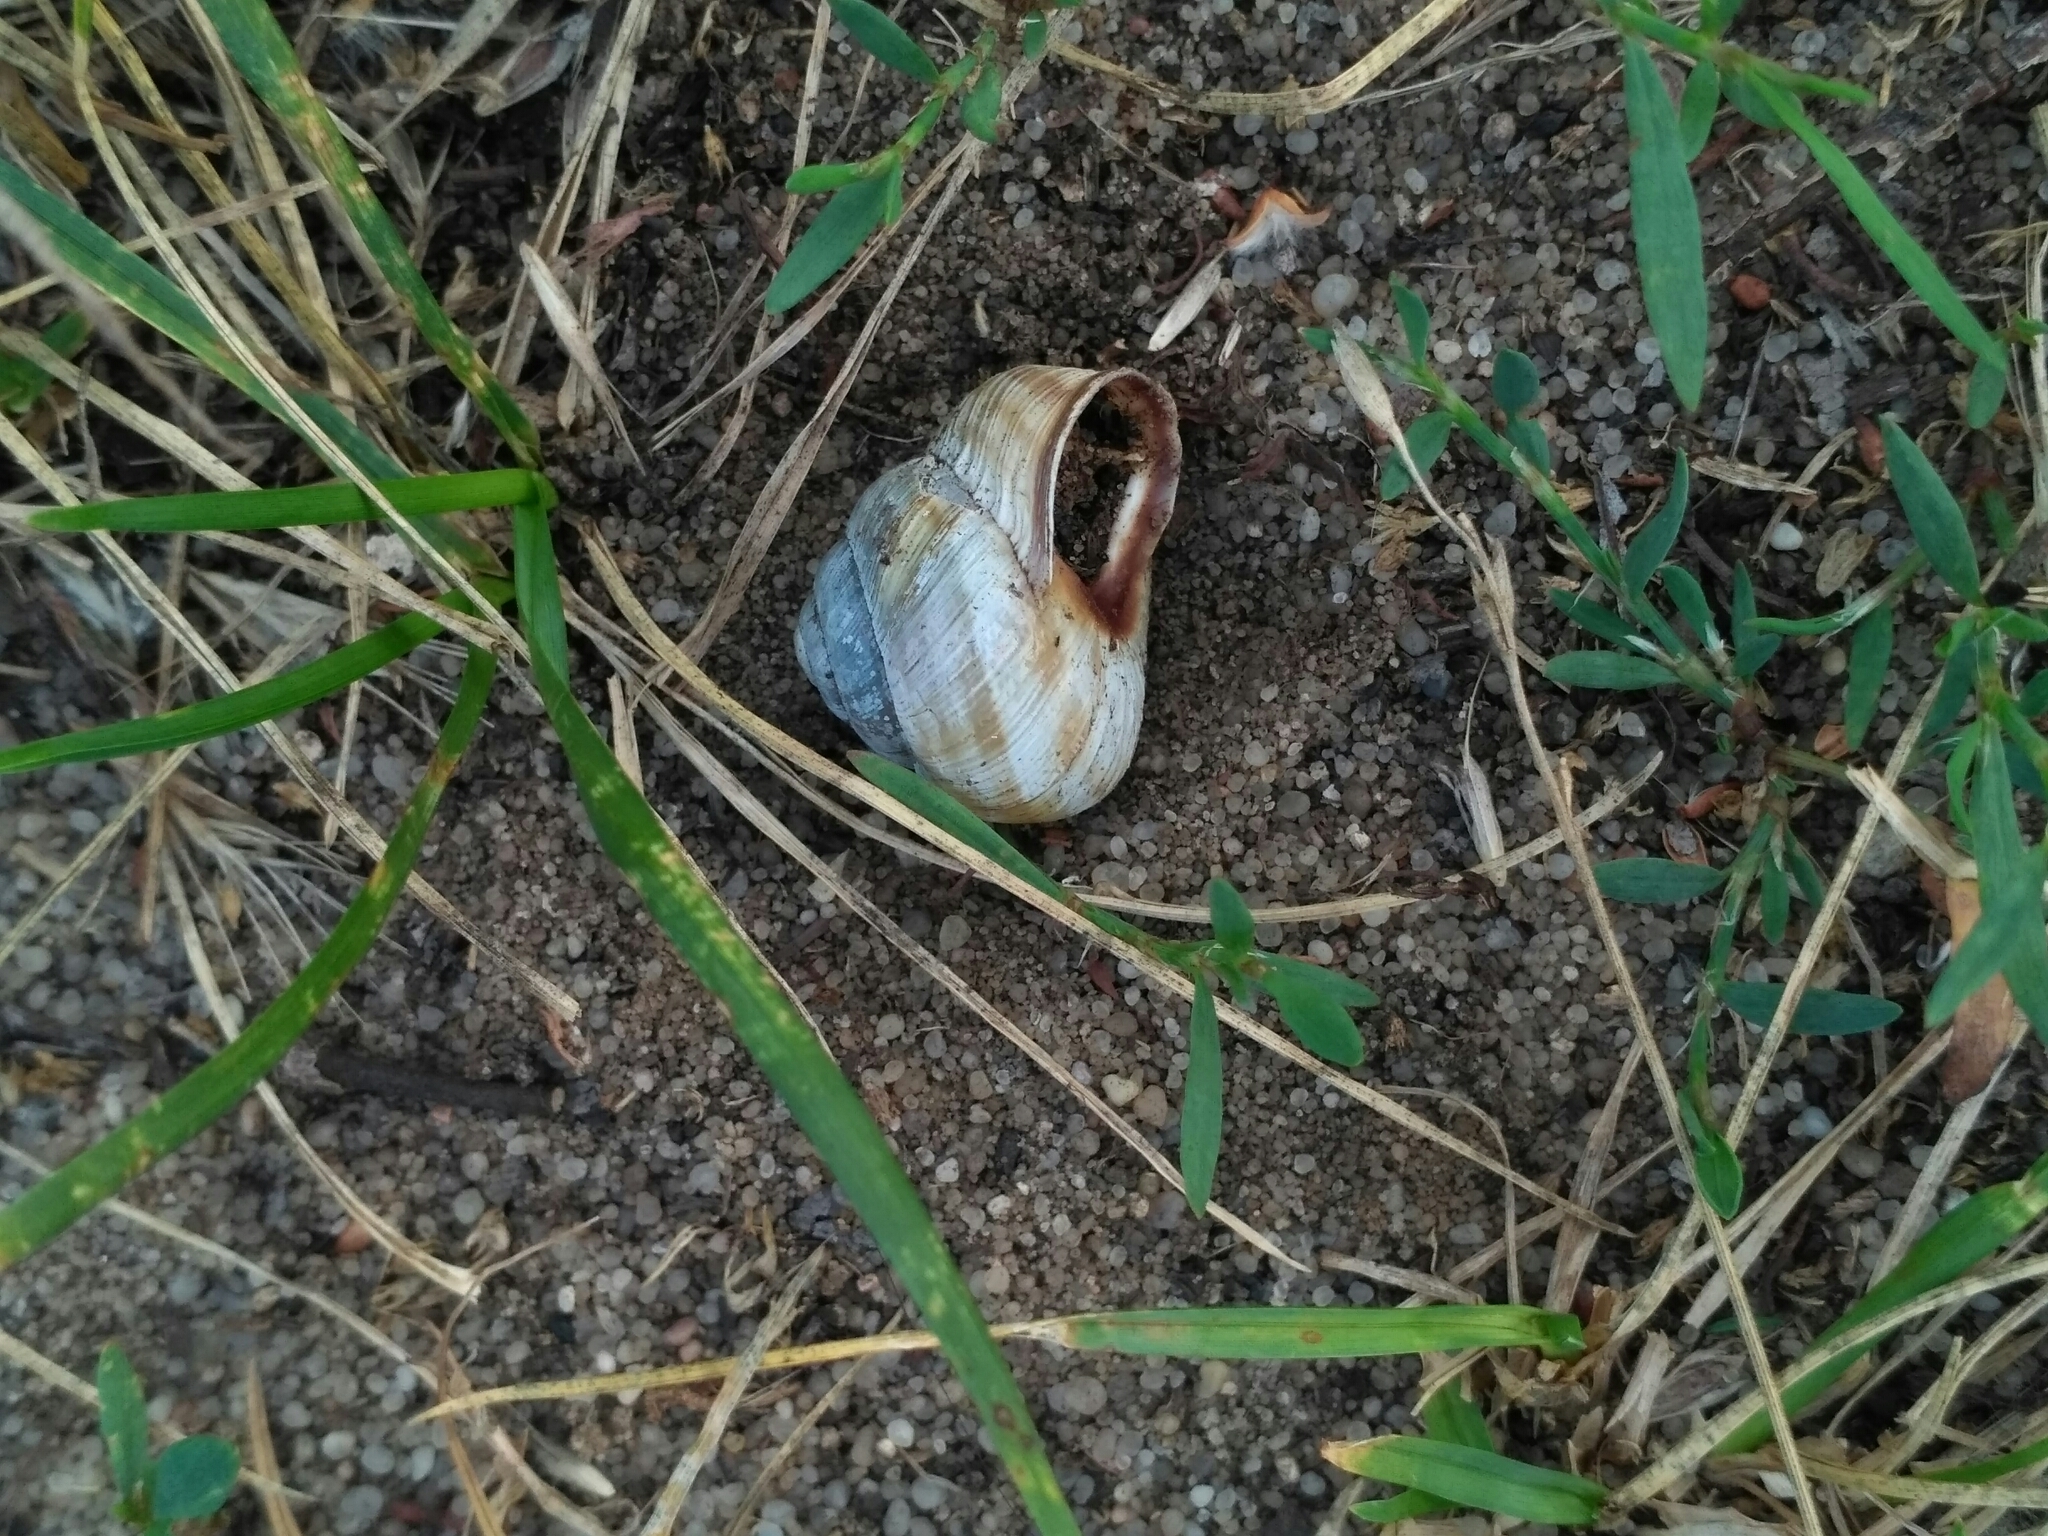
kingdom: Animalia
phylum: Mollusca
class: Gastropoda
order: Stylommatophora
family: Helicidae
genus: Caucasotachea
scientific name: Caucasotachea vindobonensis
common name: European helicid land snail
